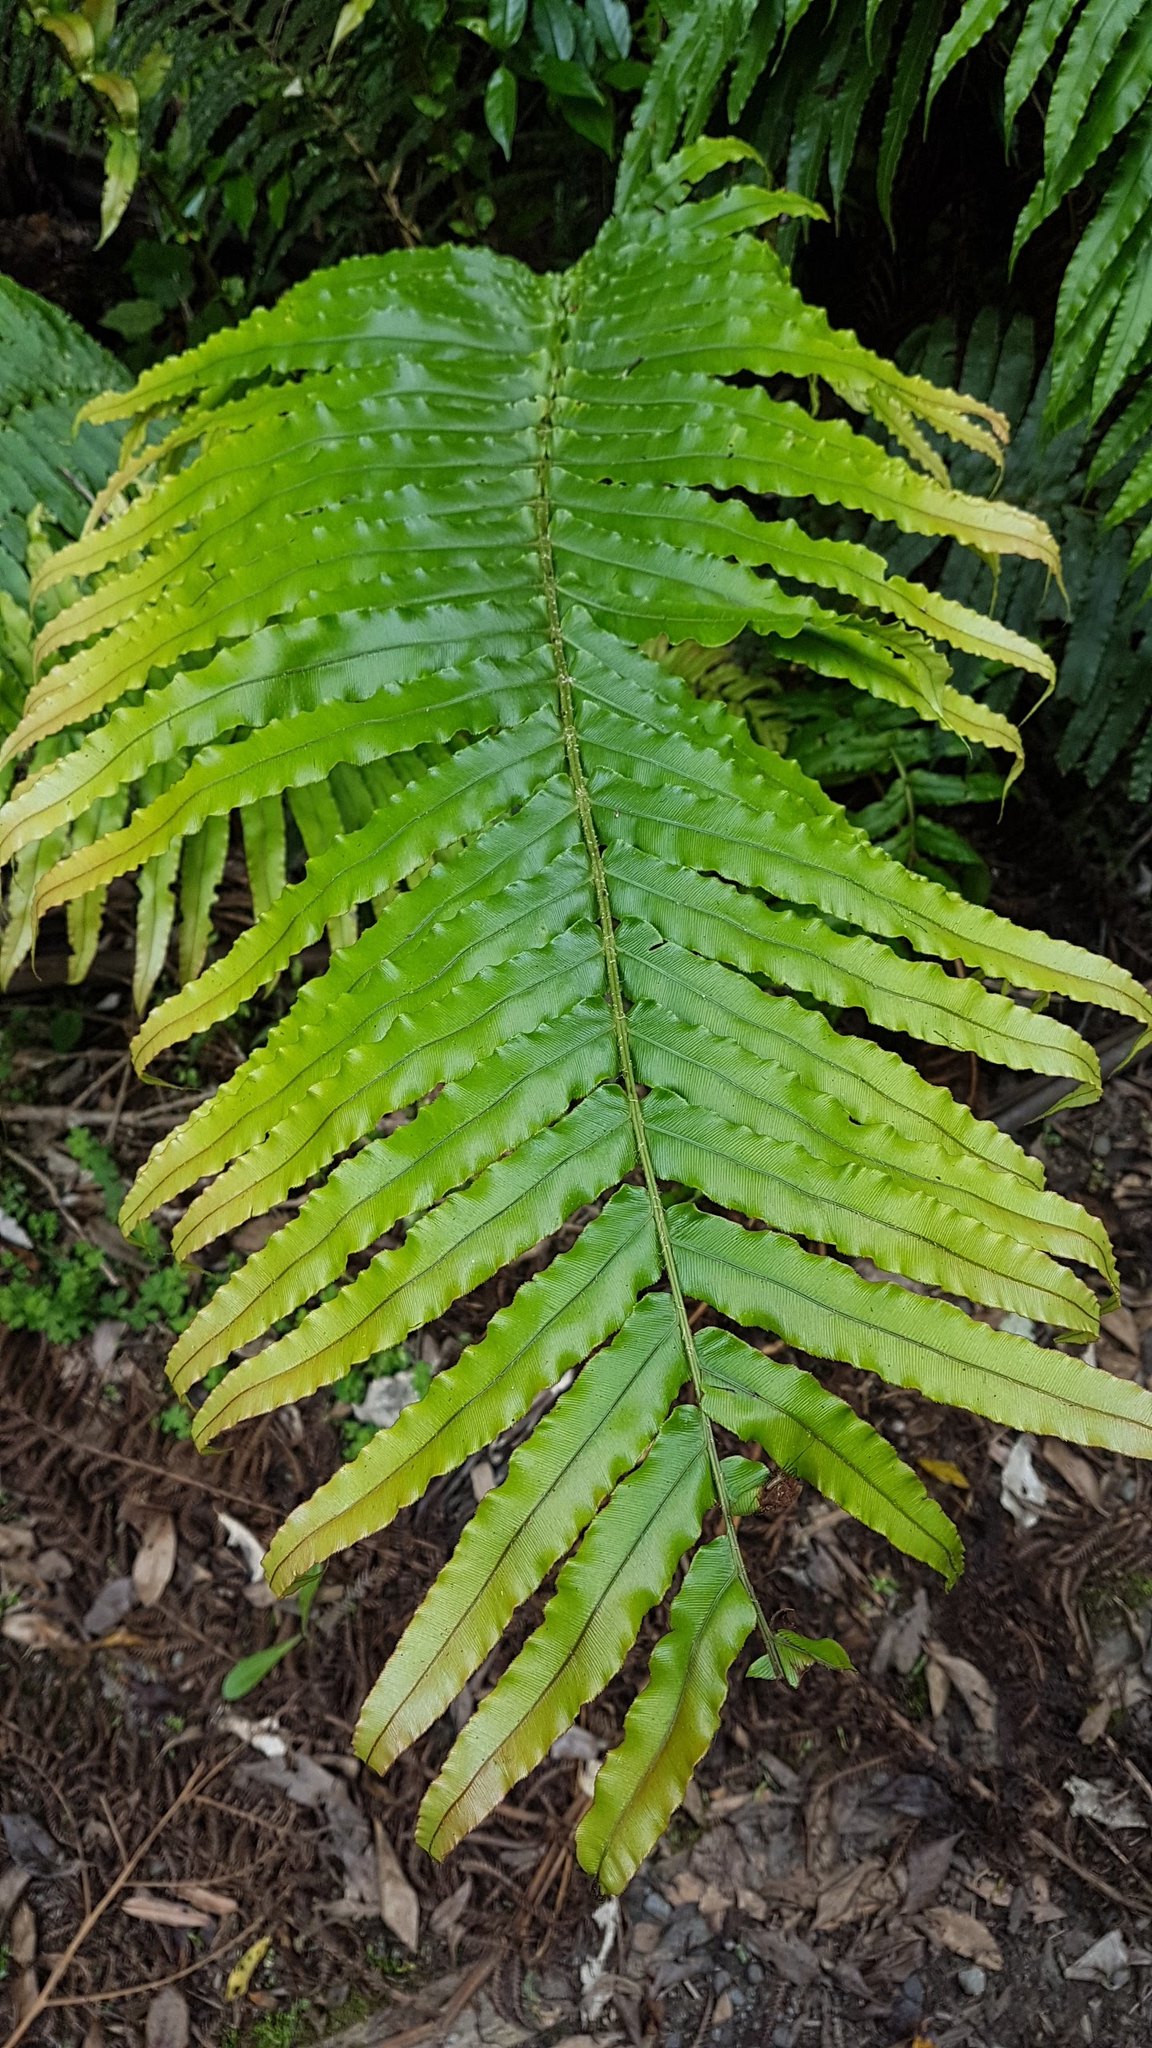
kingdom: Plantae
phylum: Tracheophyta
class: Polypodiopsida
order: Polypodiales
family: Blechnaceae
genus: Parablechnum
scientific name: Parablechnum novae-zelandiae
